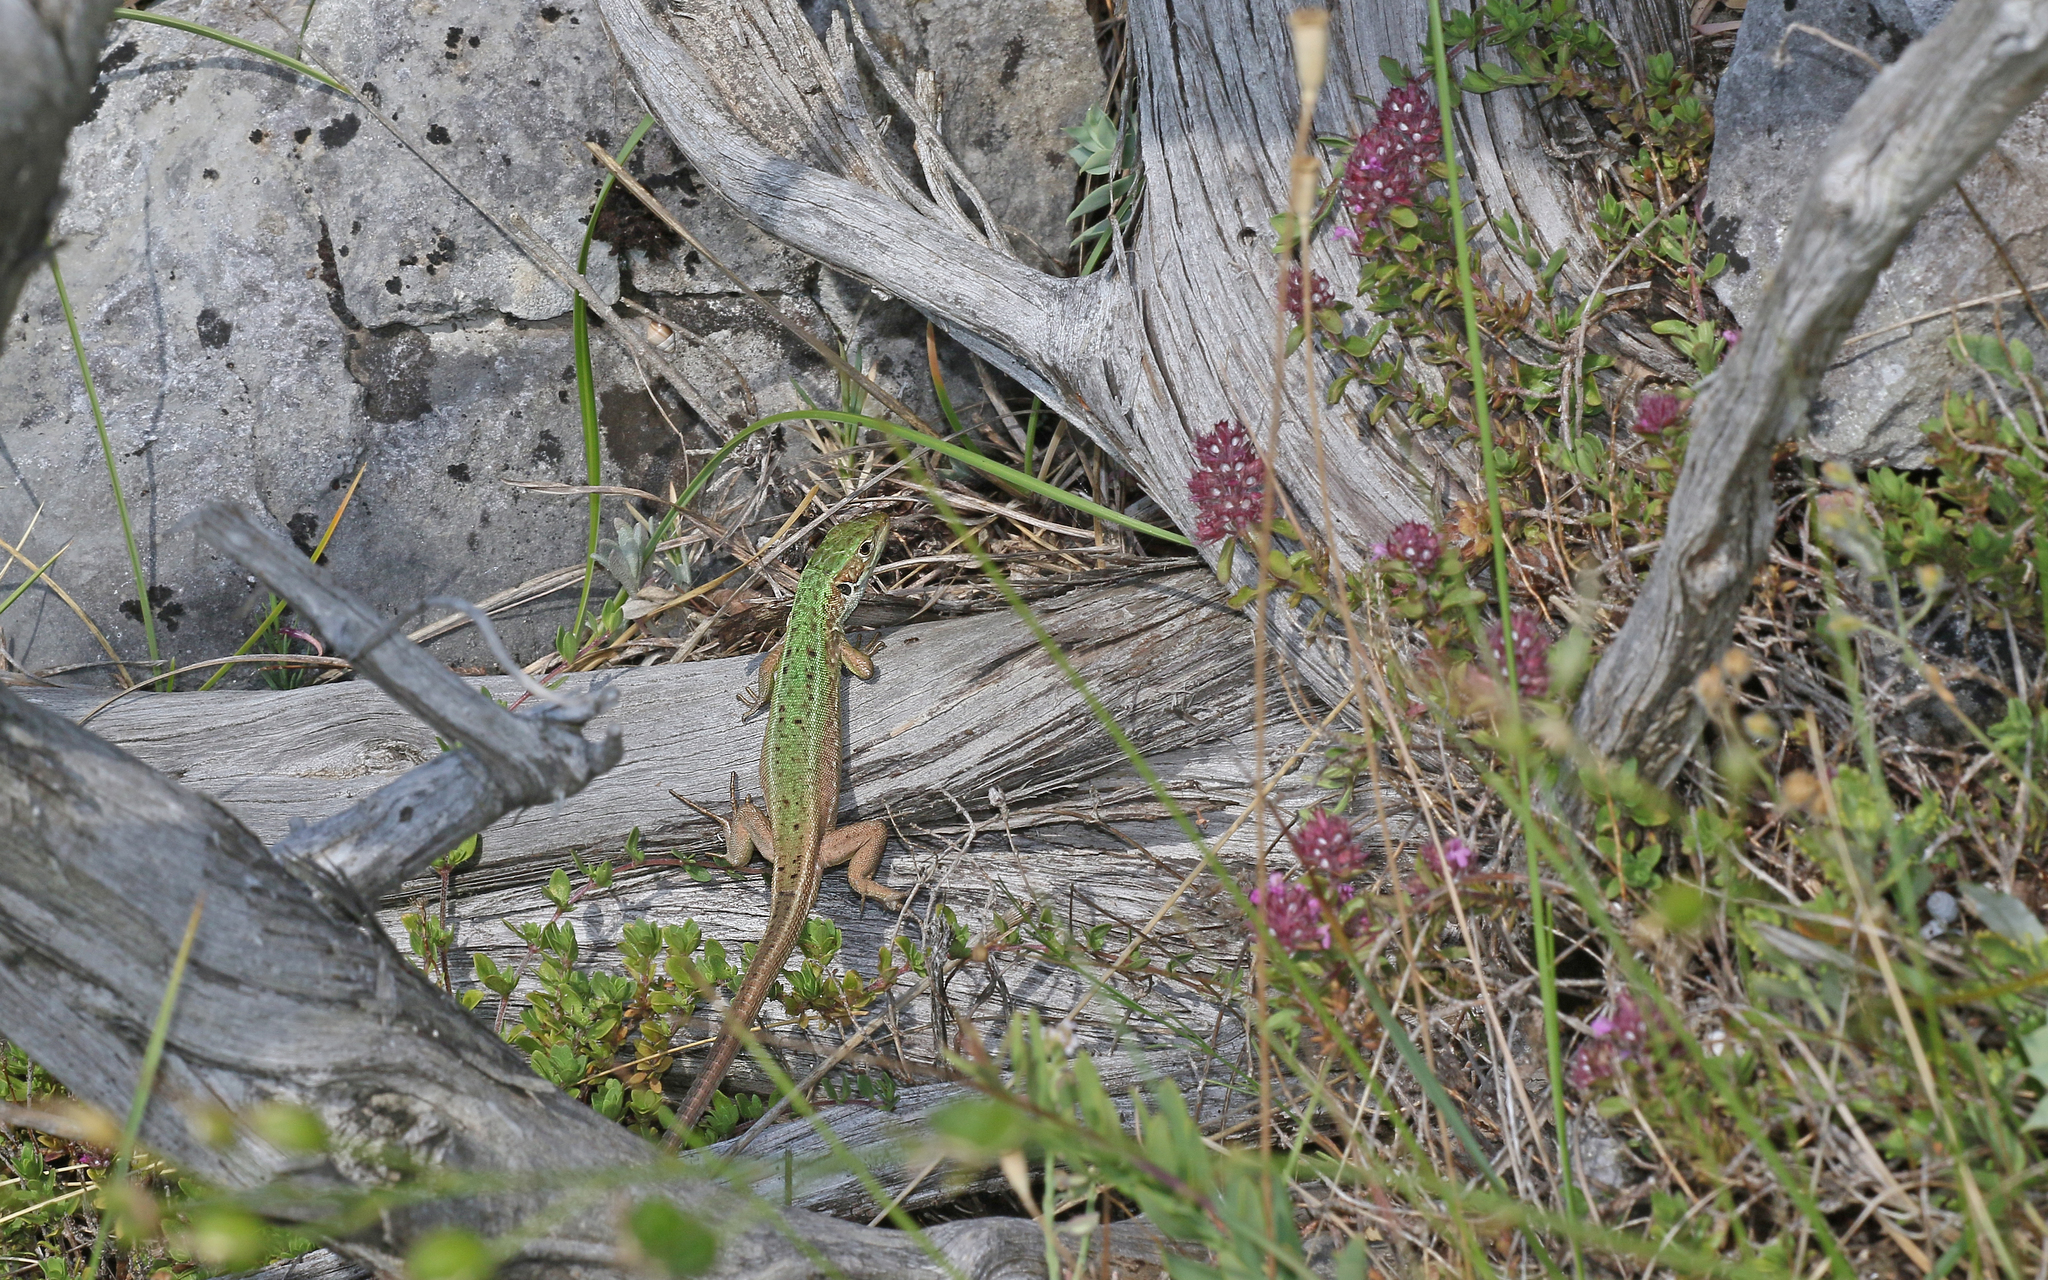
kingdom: Animalia
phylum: Chordata
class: Squamata
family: Lacertidae
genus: Lacerta
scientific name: Lacerta viridis
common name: European green lizard
